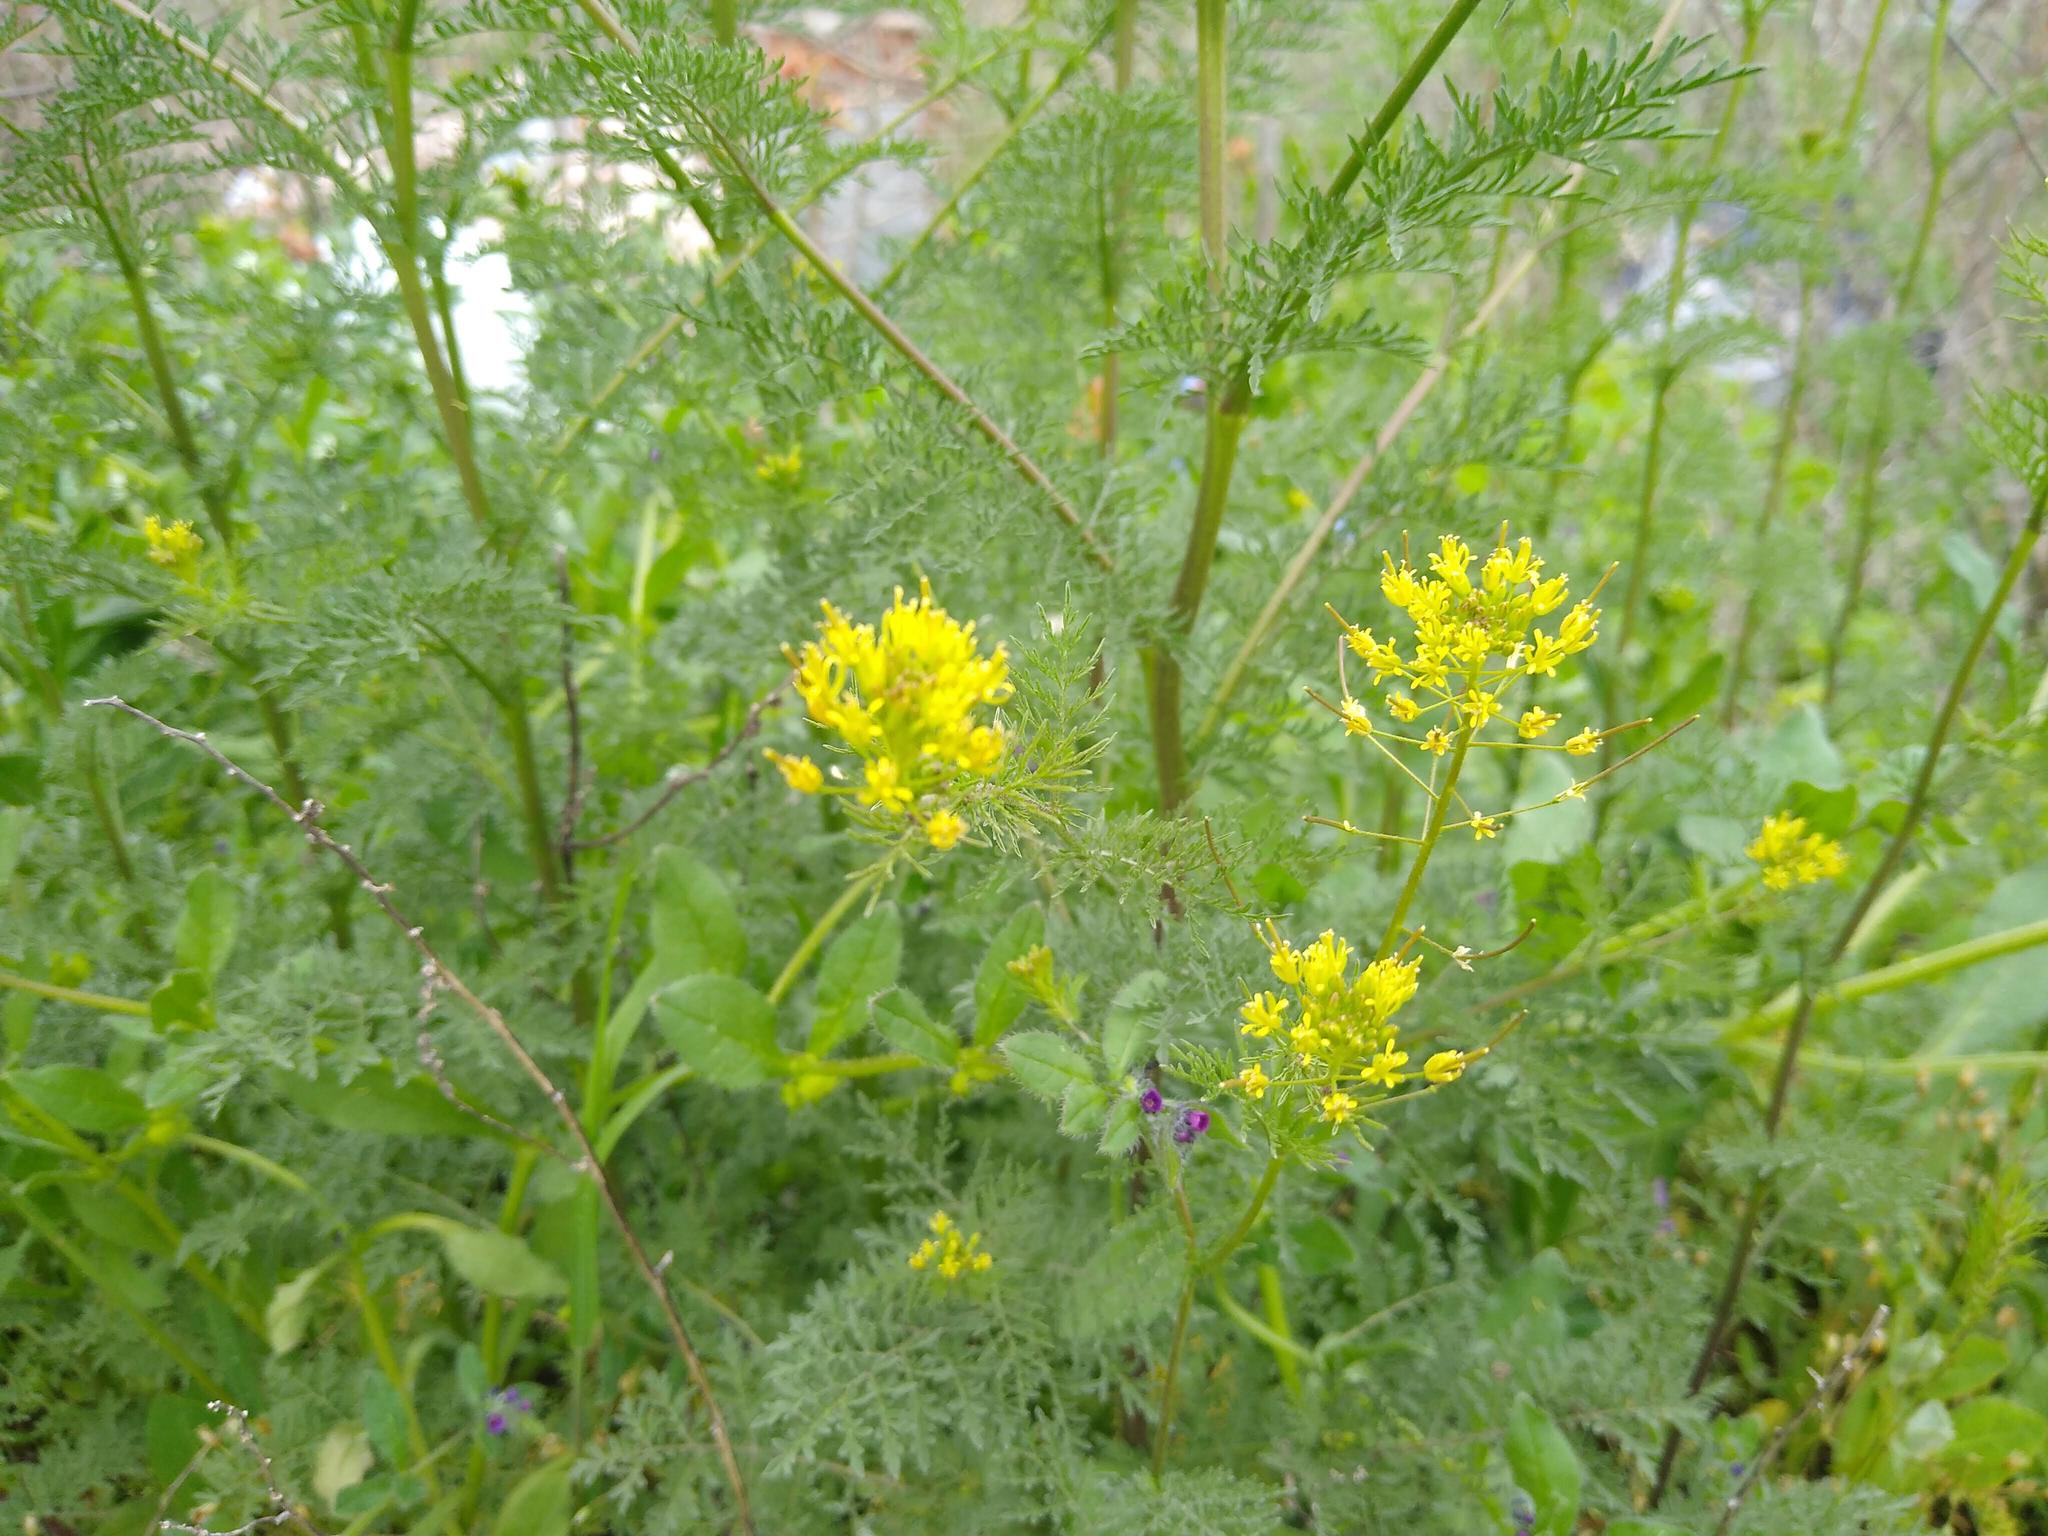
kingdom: Plantae
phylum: Tracheophyta
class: Magnoliopsida
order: Brassicales
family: Brassicaceae
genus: Descurainia
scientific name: Descurainia sophia
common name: Flixweed
